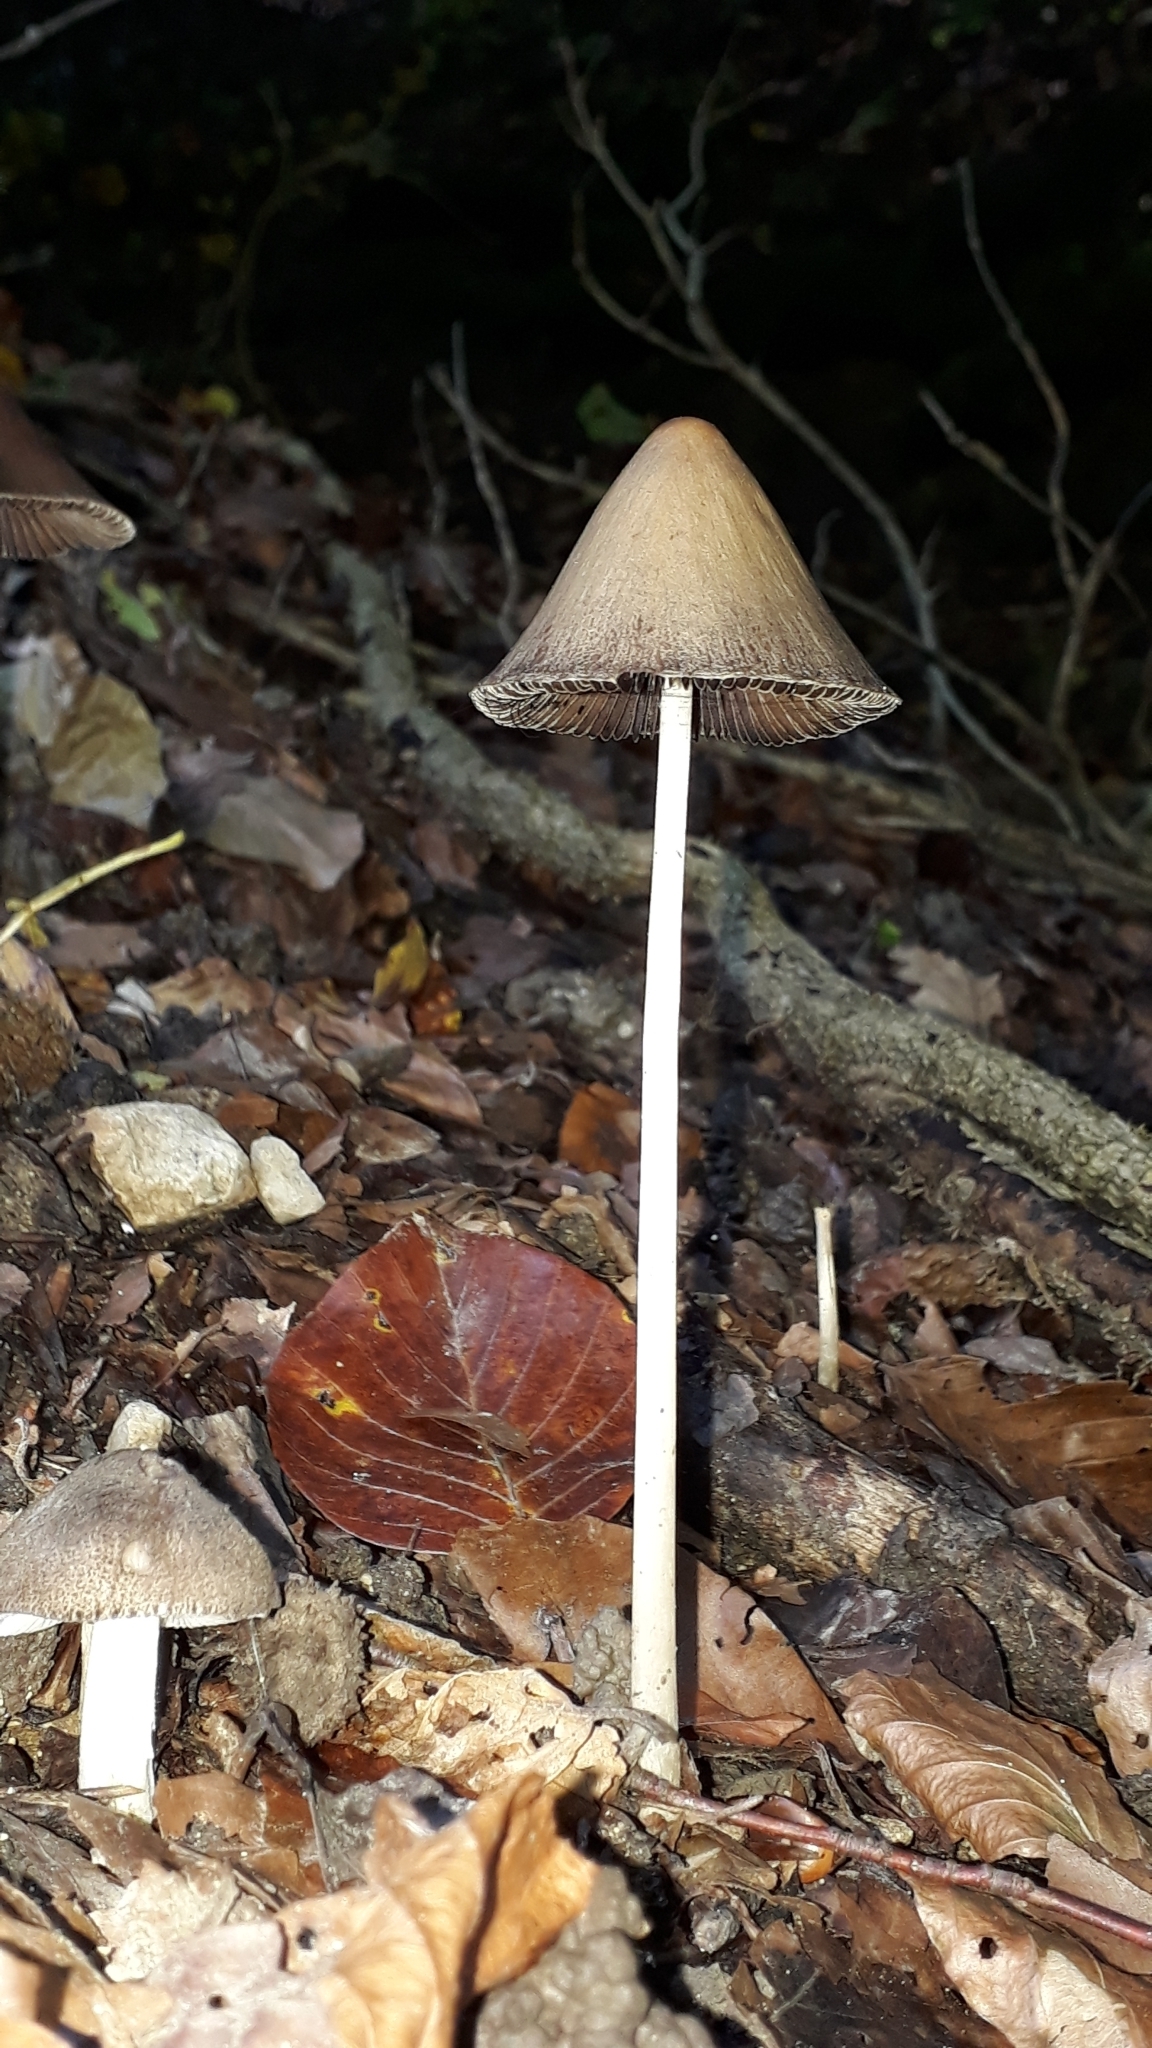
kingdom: Fungi
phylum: Basidiomycota
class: Agaricomycetes
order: Agaricales
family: Psathyrellaceae
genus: Parasola
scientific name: Parasola conopilea
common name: Conical brittlestem
